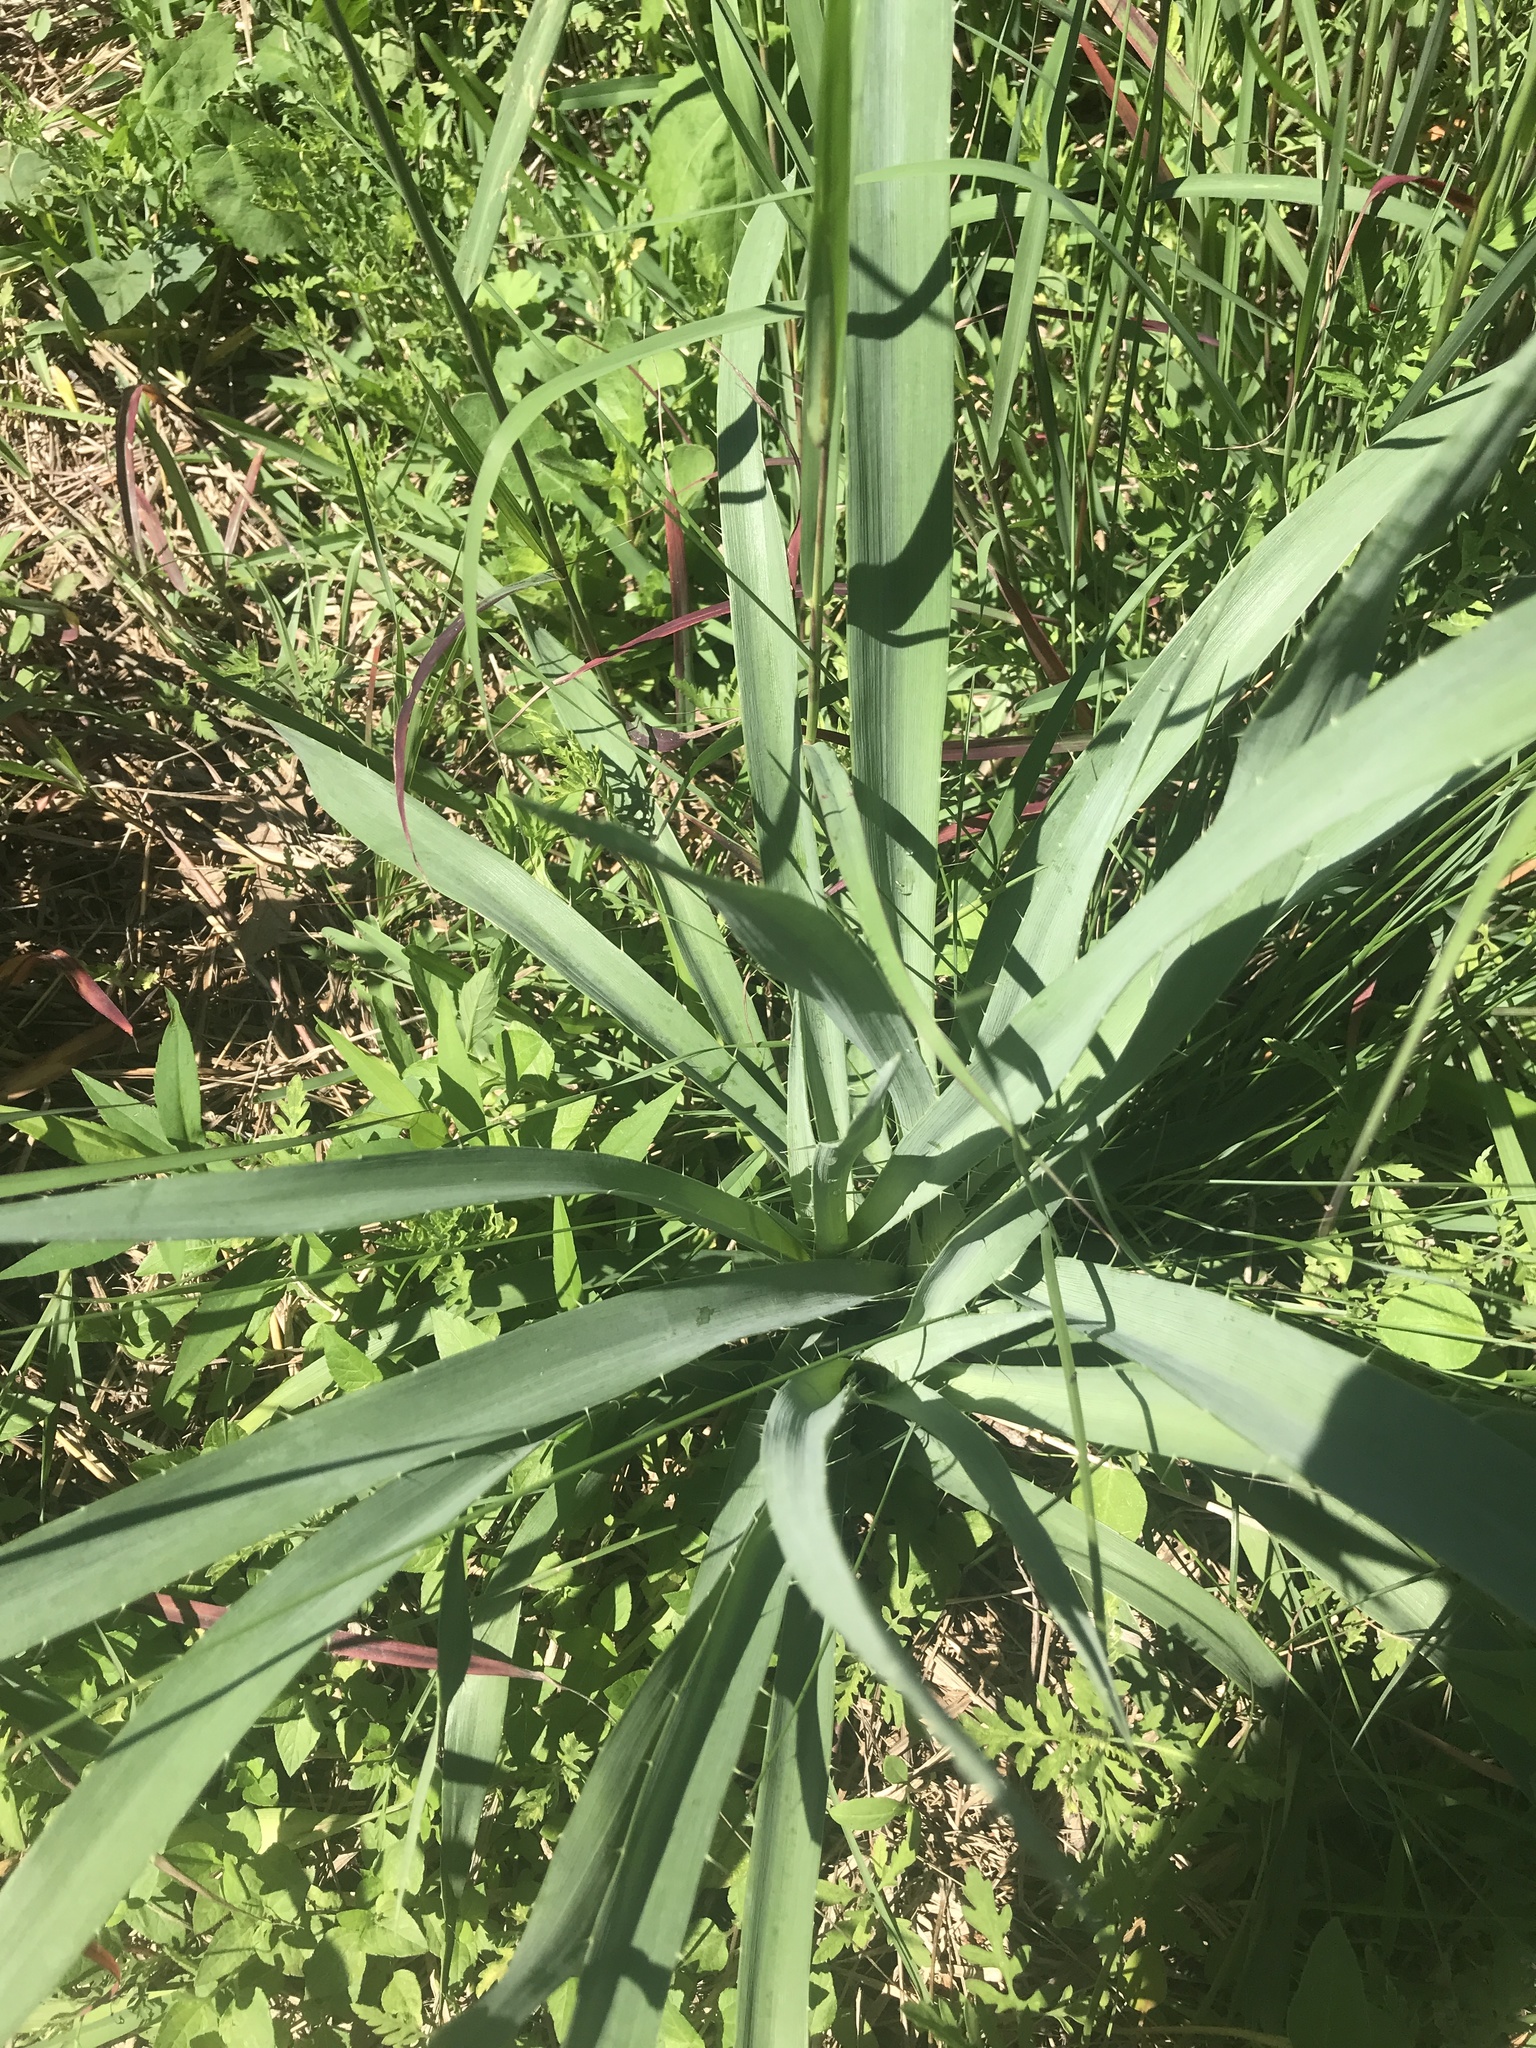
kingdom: Plantae
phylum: Tracheophyta
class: Magnoliopsida
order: Apiales
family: Apiaceae
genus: Eryngium
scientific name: Eryngium yuccifolium
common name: Button eryngo
